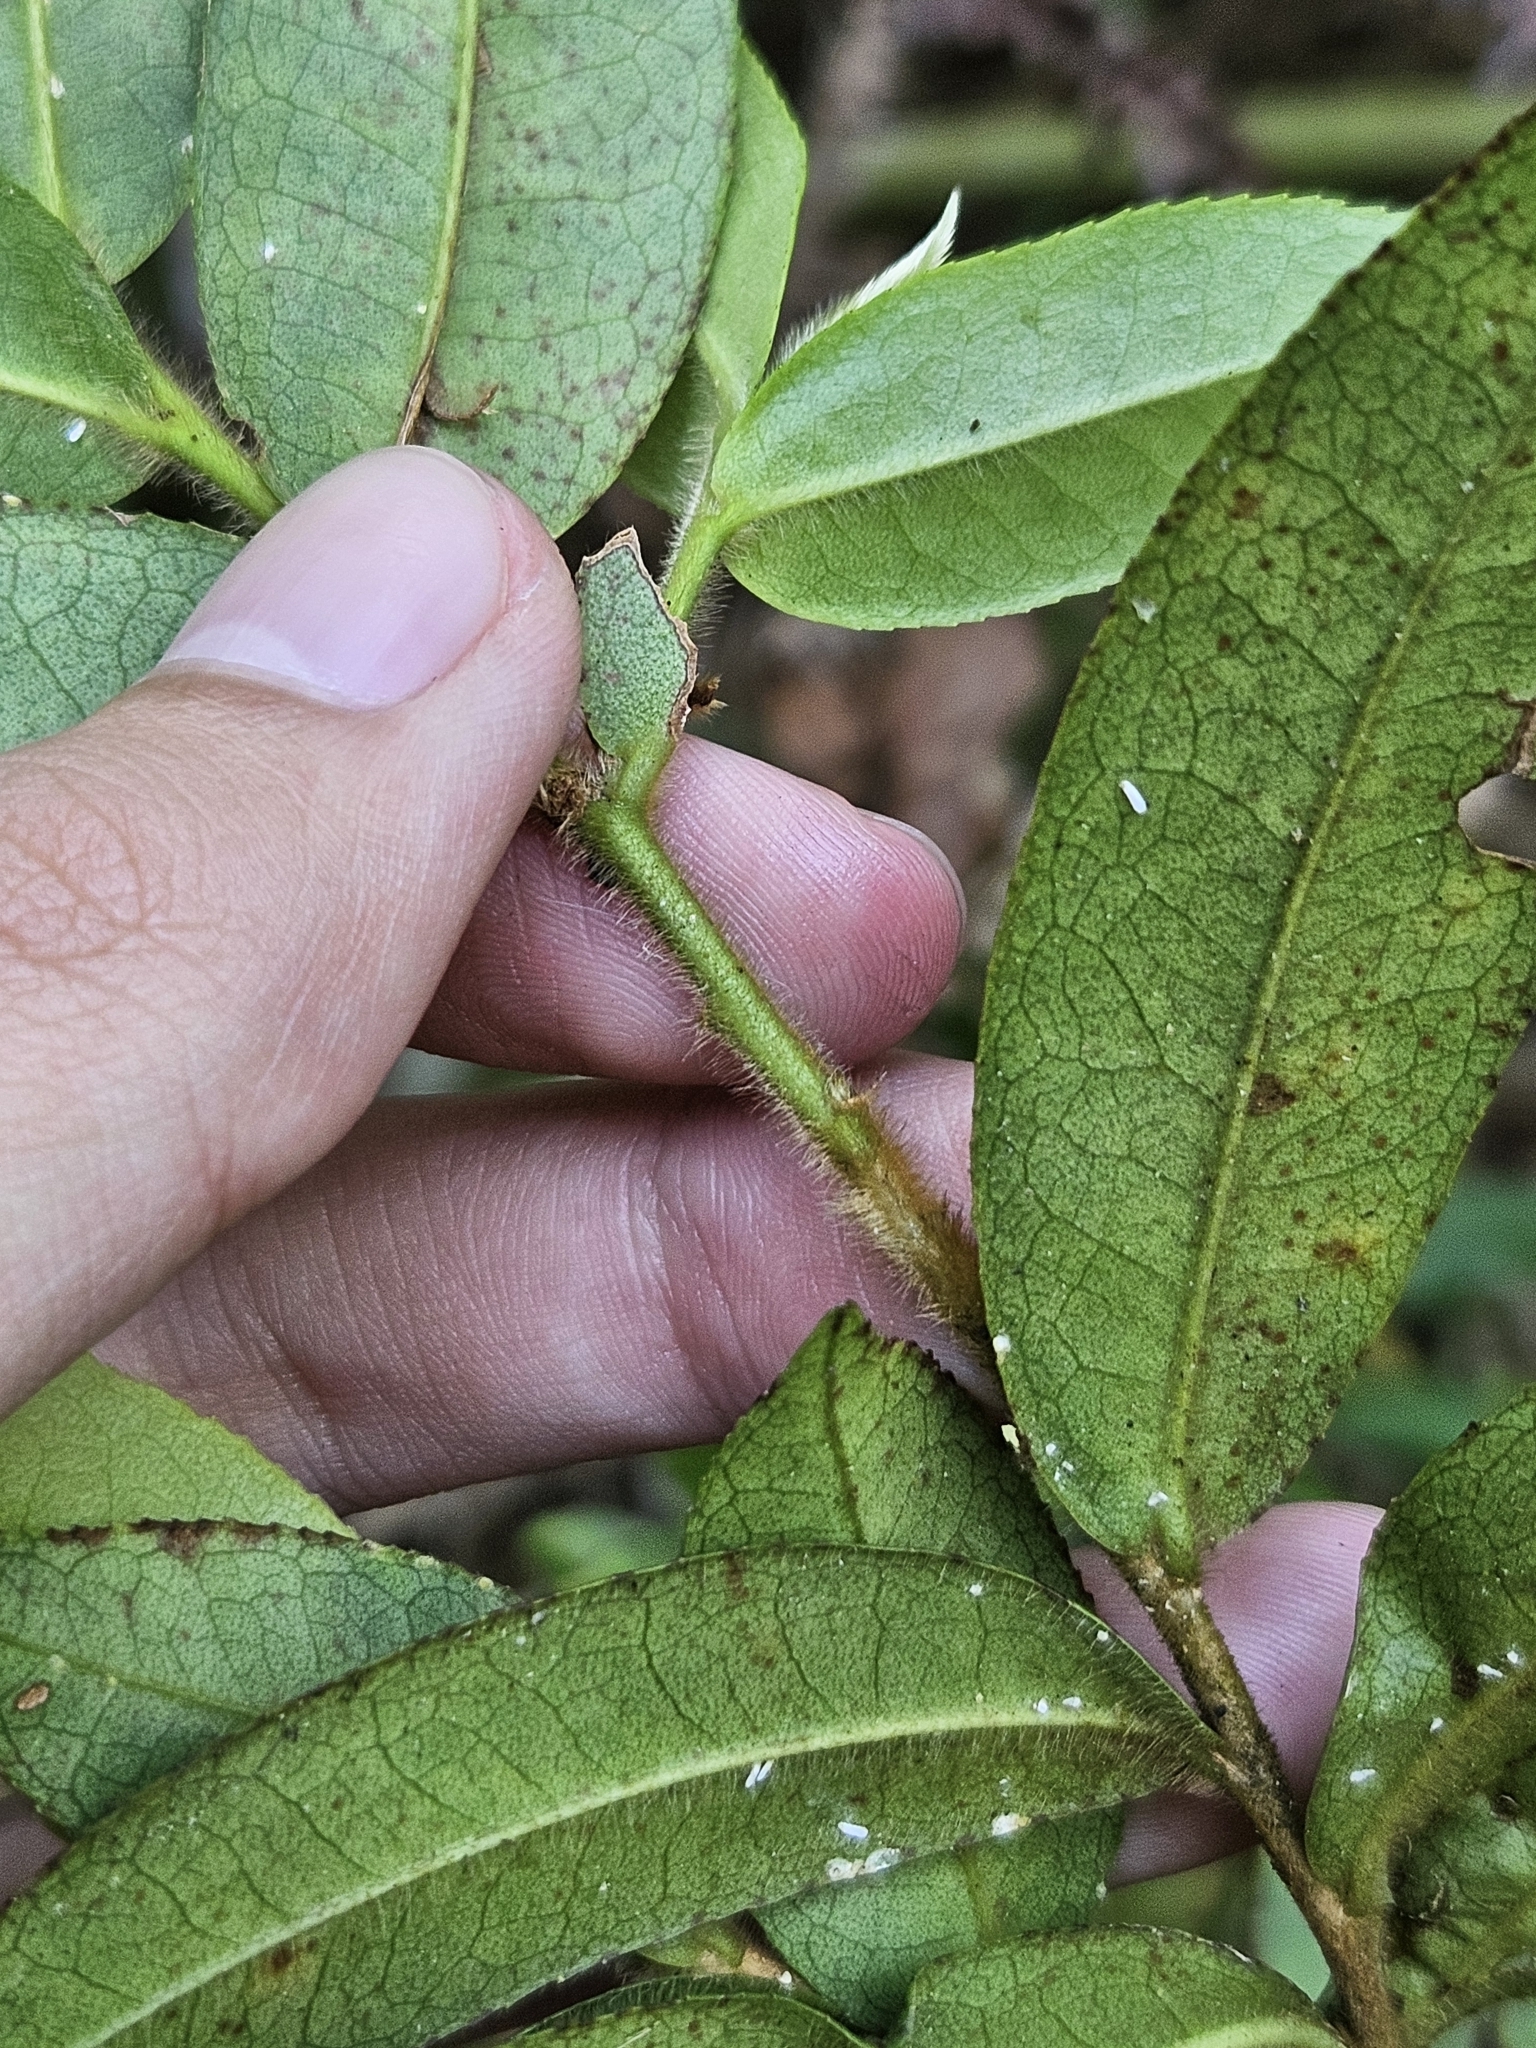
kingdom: Plantae
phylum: Tracheophyta
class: Magnoliopsida
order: Ericales
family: Pentaphylacaceae
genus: Eurya
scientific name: Eurya strigillosa
